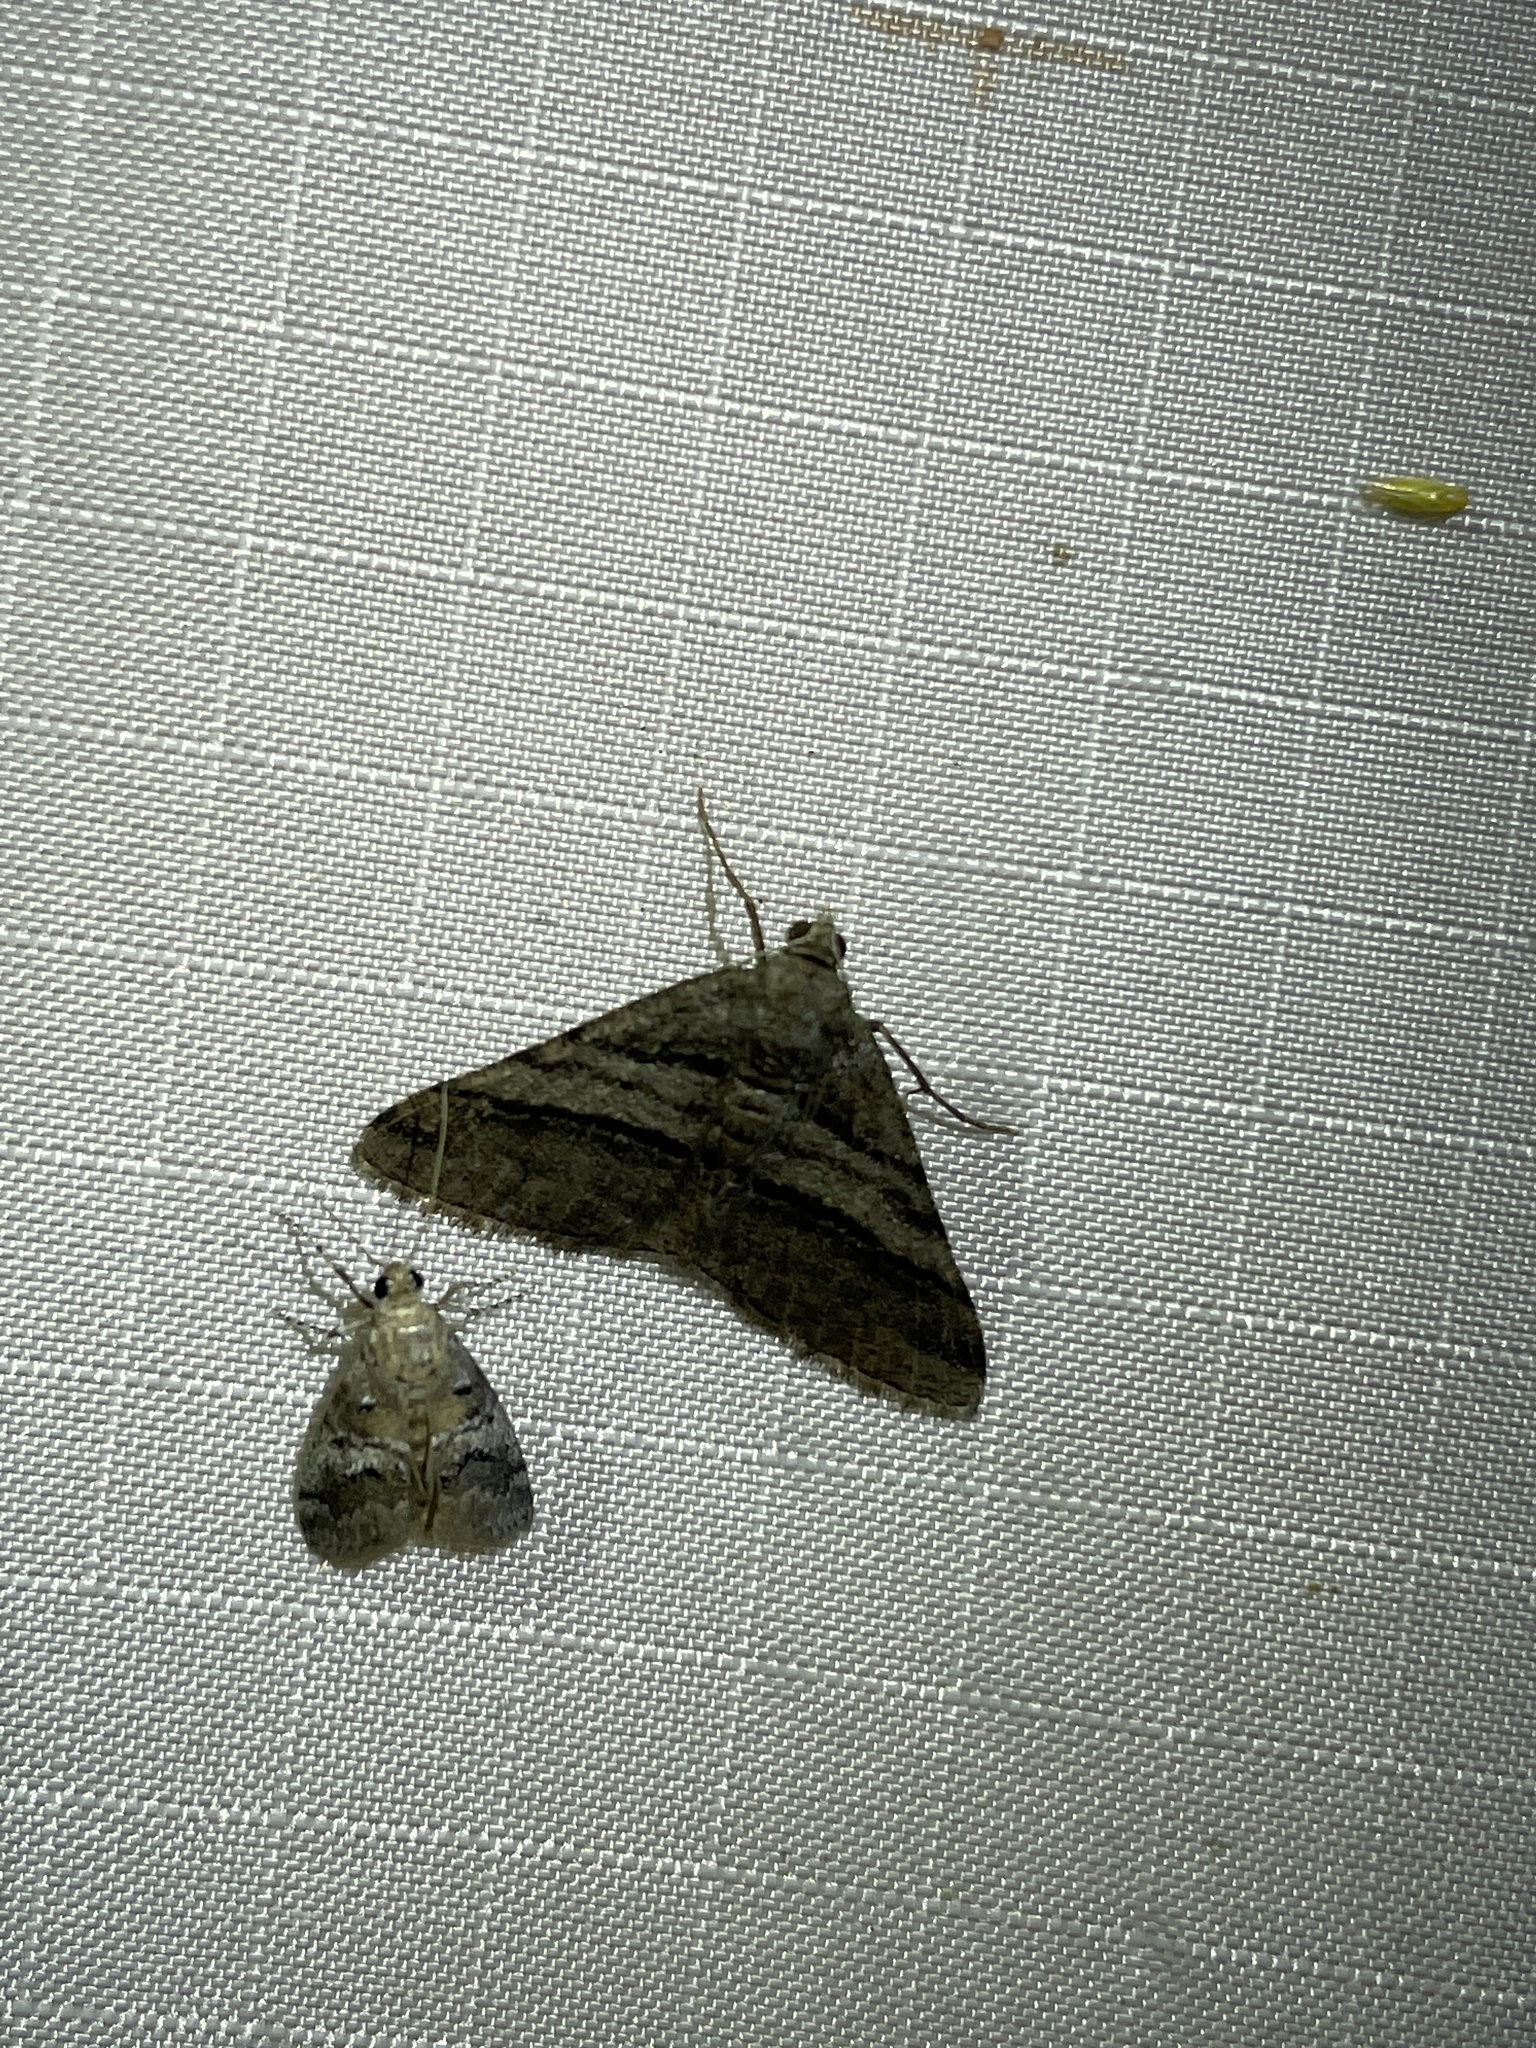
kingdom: Animalia
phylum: Arthropoda
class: Insecta
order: Lepidoptera
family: Geometridae
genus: Digrammia
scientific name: Digrammia atrofasciata
